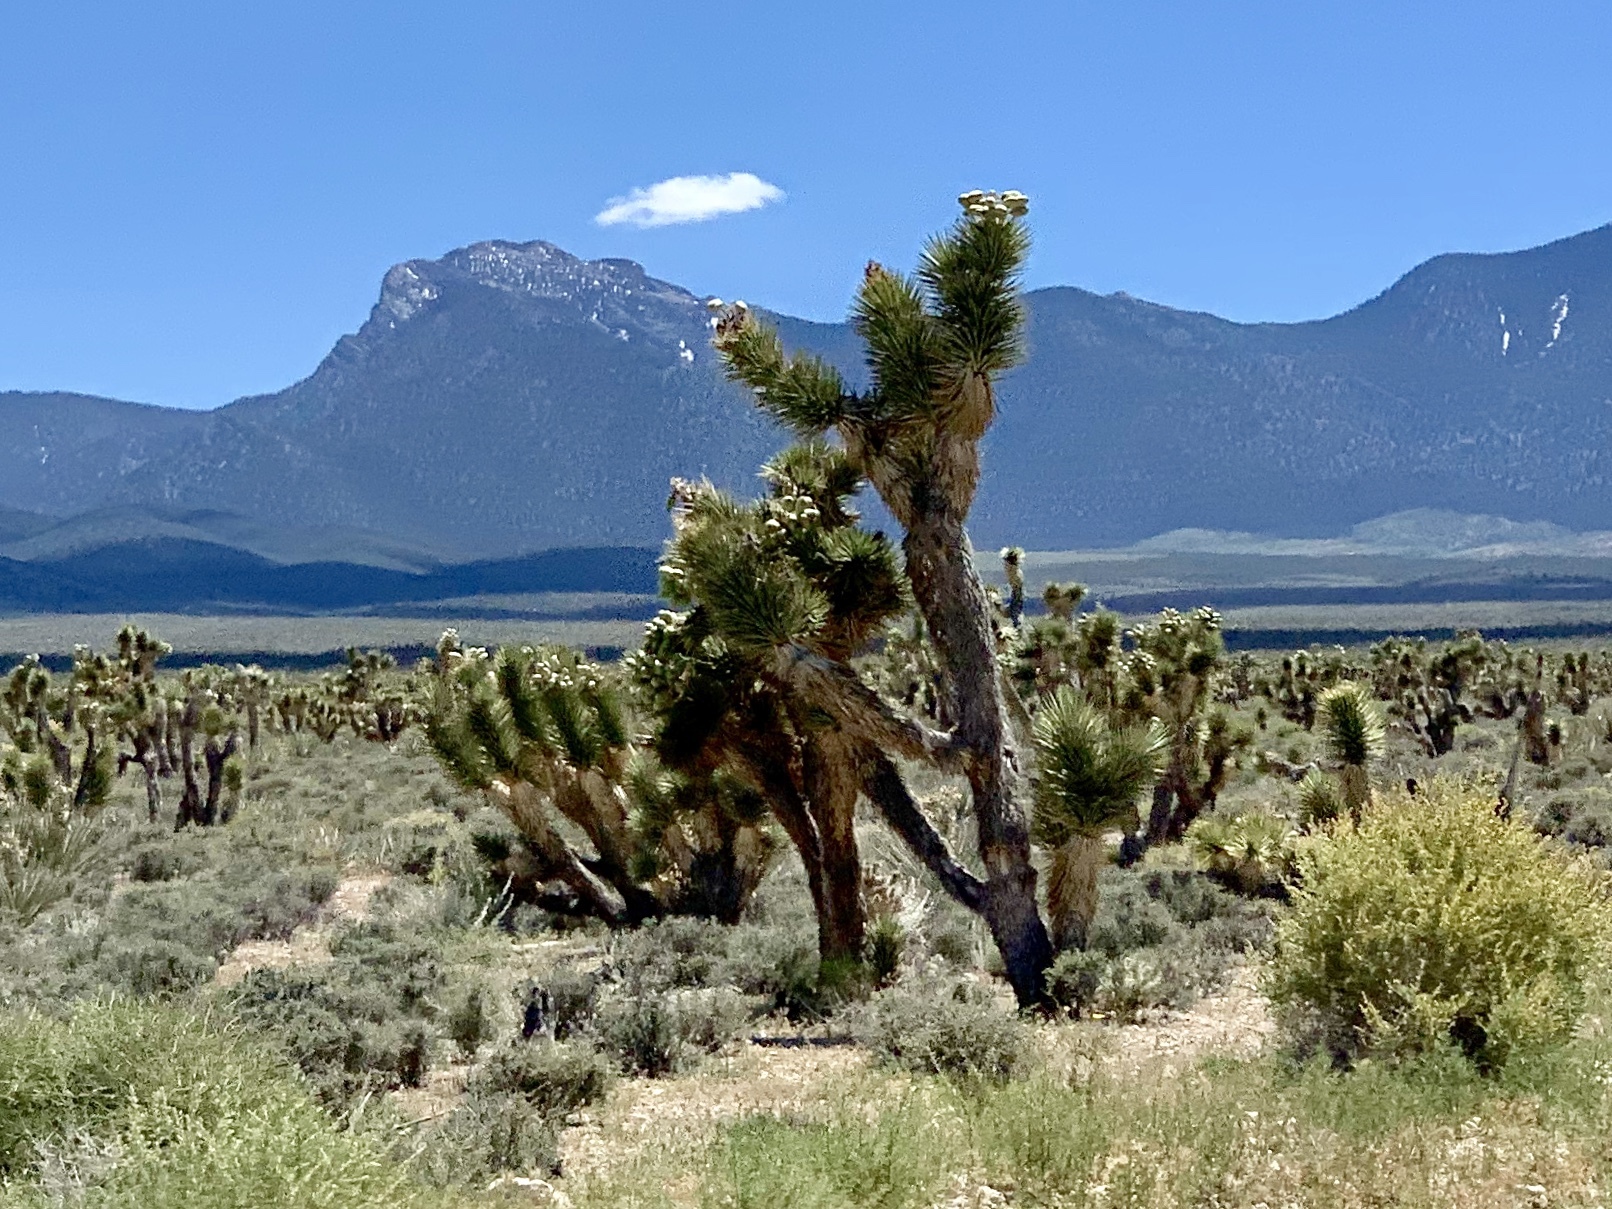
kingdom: Plantae
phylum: Tracheophyta
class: Liliopsida
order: Asparagales
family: Asparagaceae
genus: Yucca
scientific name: Yucca brevifolia
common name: Joshua tree
